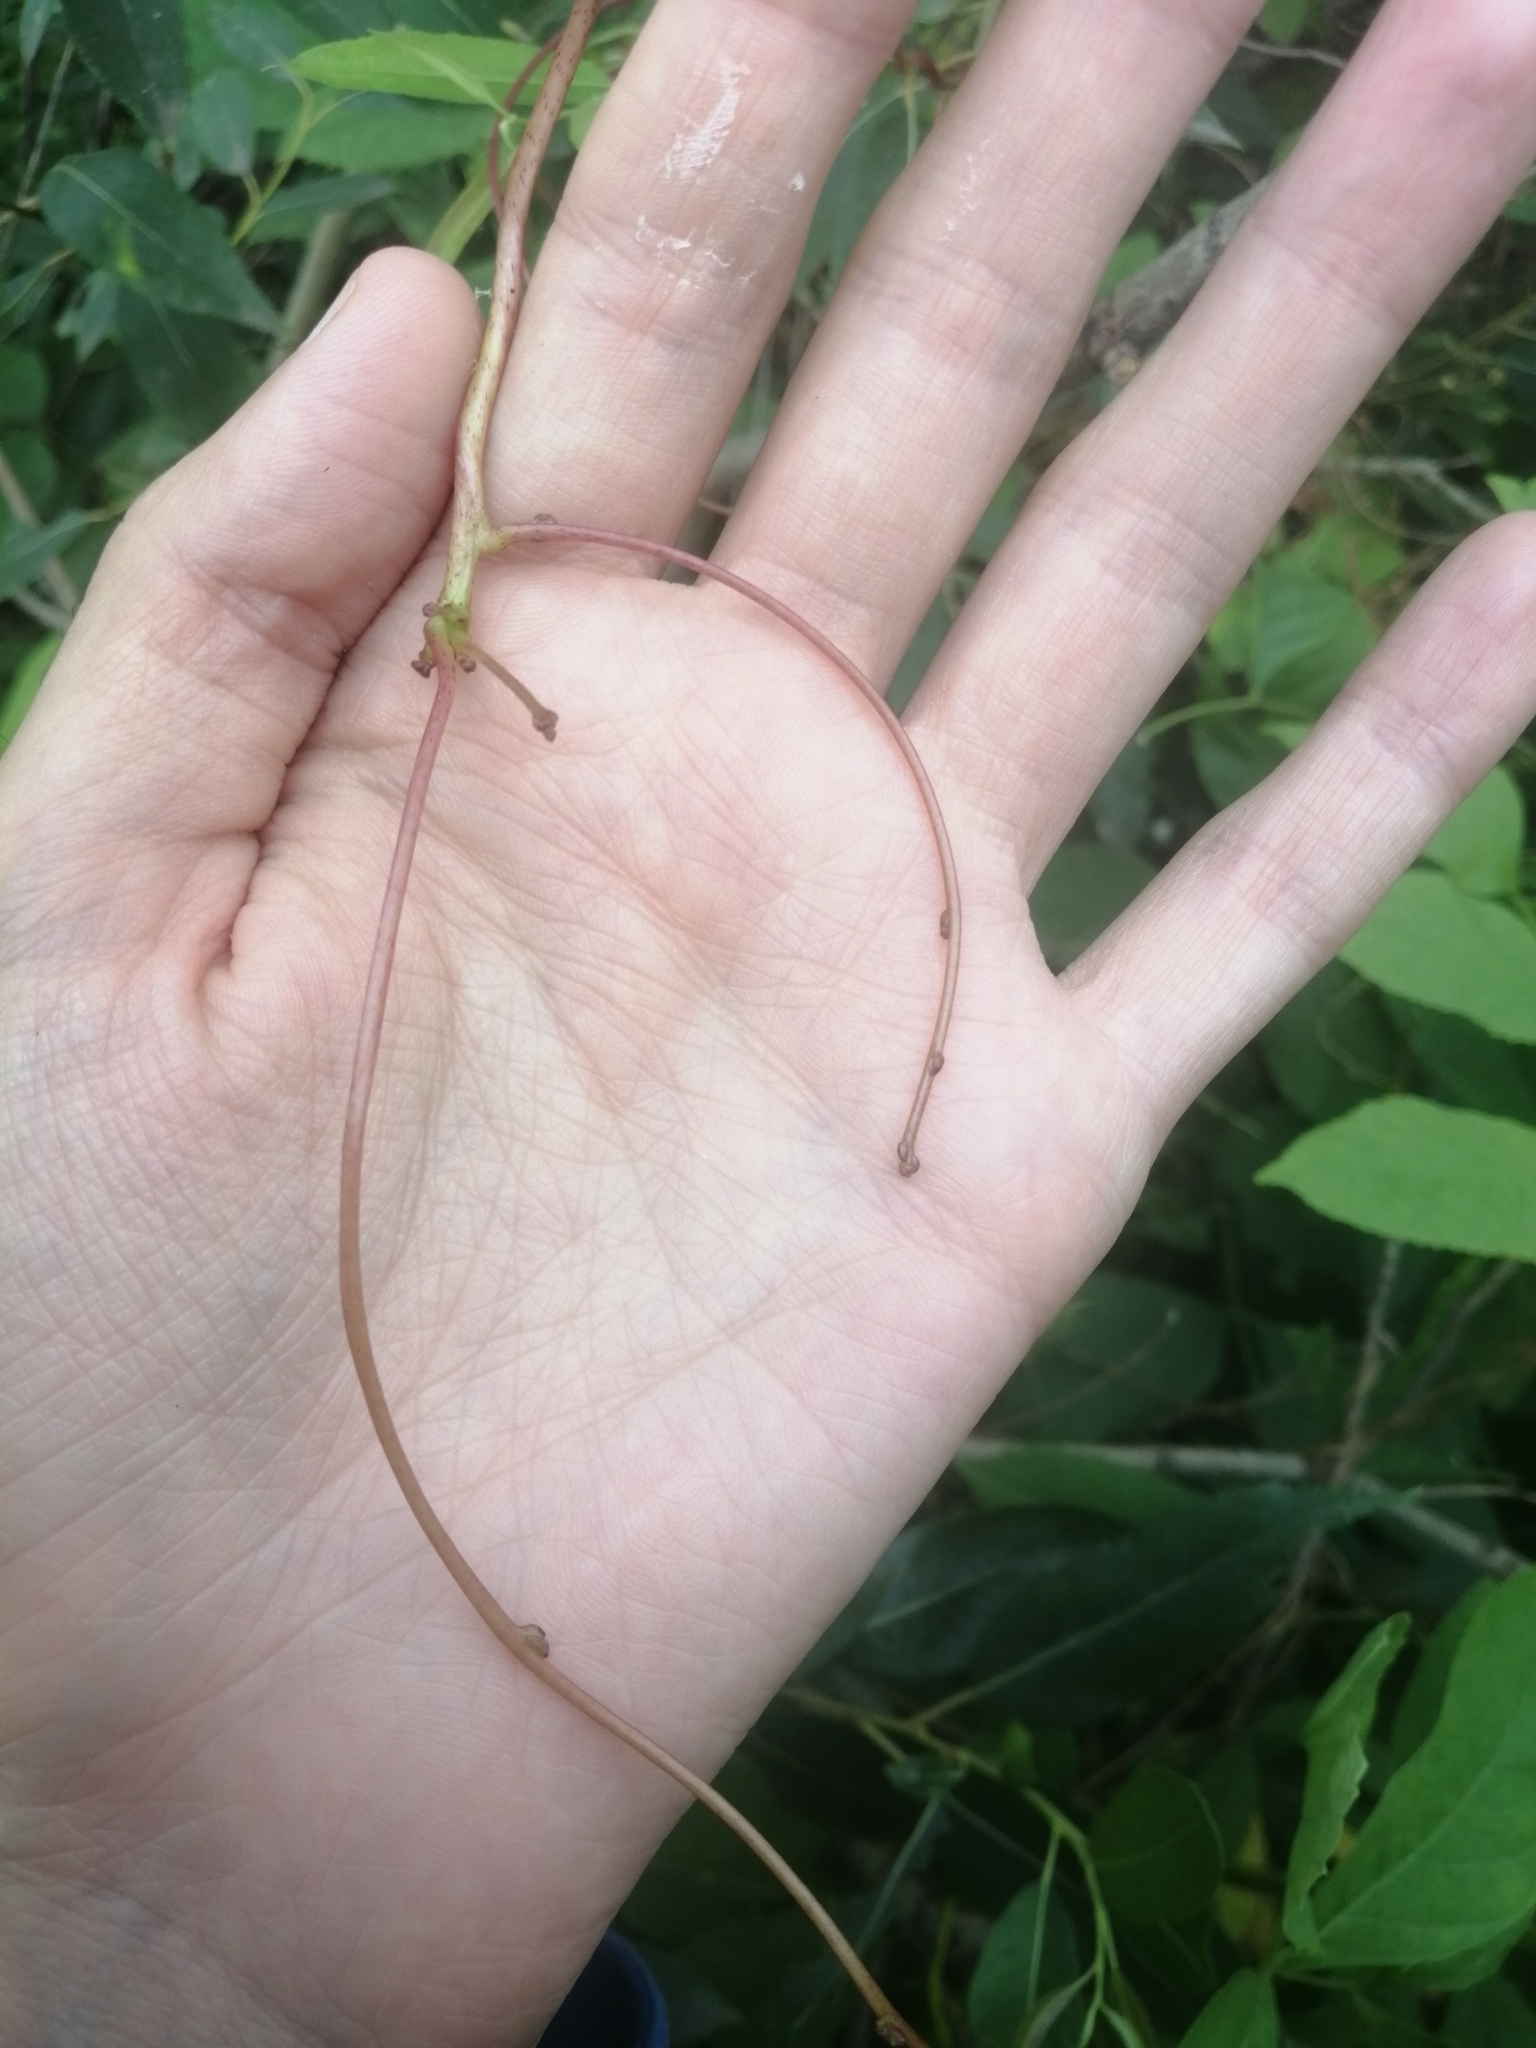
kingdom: Plantae
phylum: Tracheophyta
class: Magnoliopsida
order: Solanales
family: Convolvulaceae
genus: Cuscuta
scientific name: Cuscuta lupuliformis
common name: Hop dodder
